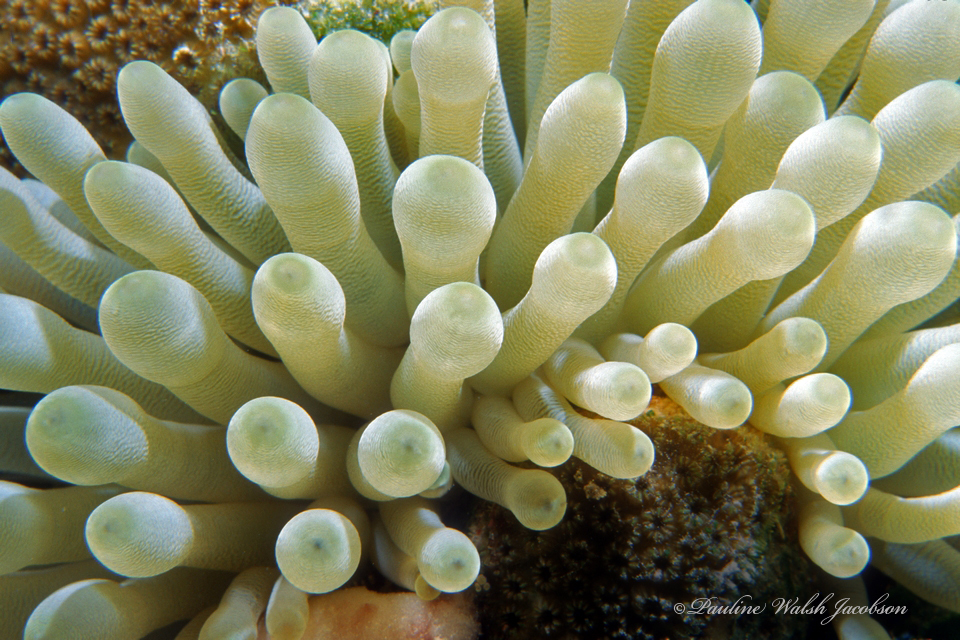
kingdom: Animalia
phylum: Cnidaria
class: Anthozoa
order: Actiniaria
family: Actiniidae
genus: Condylactis
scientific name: Condylactis gigantea
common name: Giant caribbean anemone
